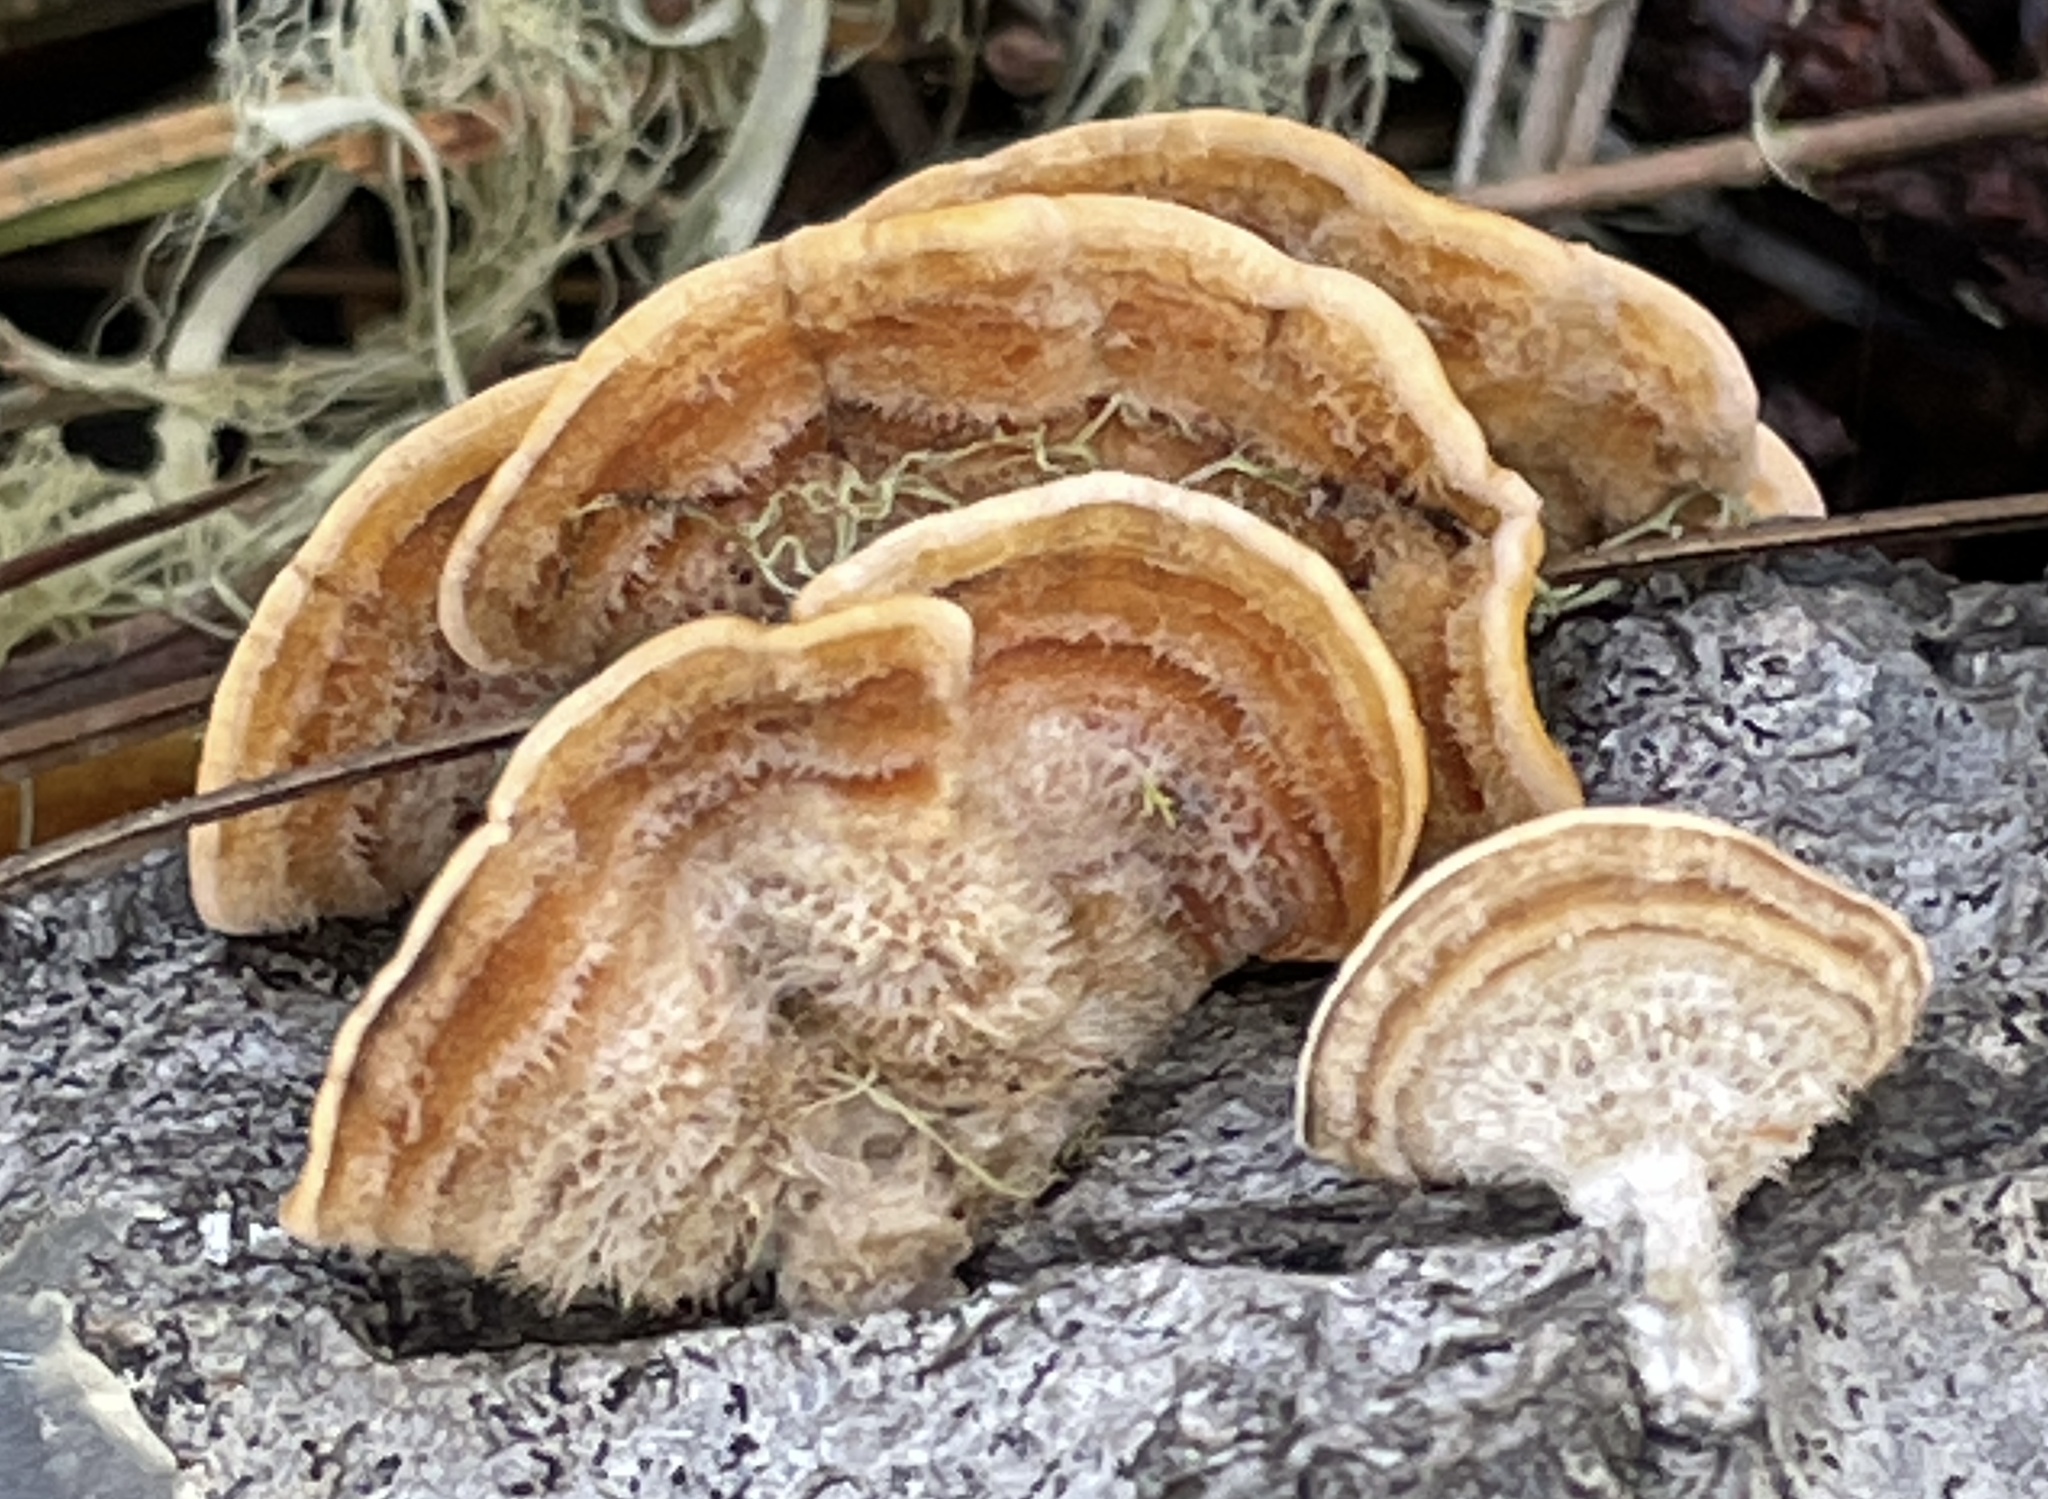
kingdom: Fungi
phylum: Basidiomycota
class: Agaricomycetes
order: Russulales
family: Stereaceae
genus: Stereum
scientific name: Stereum hirsutum
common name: Hairy curtain crust
